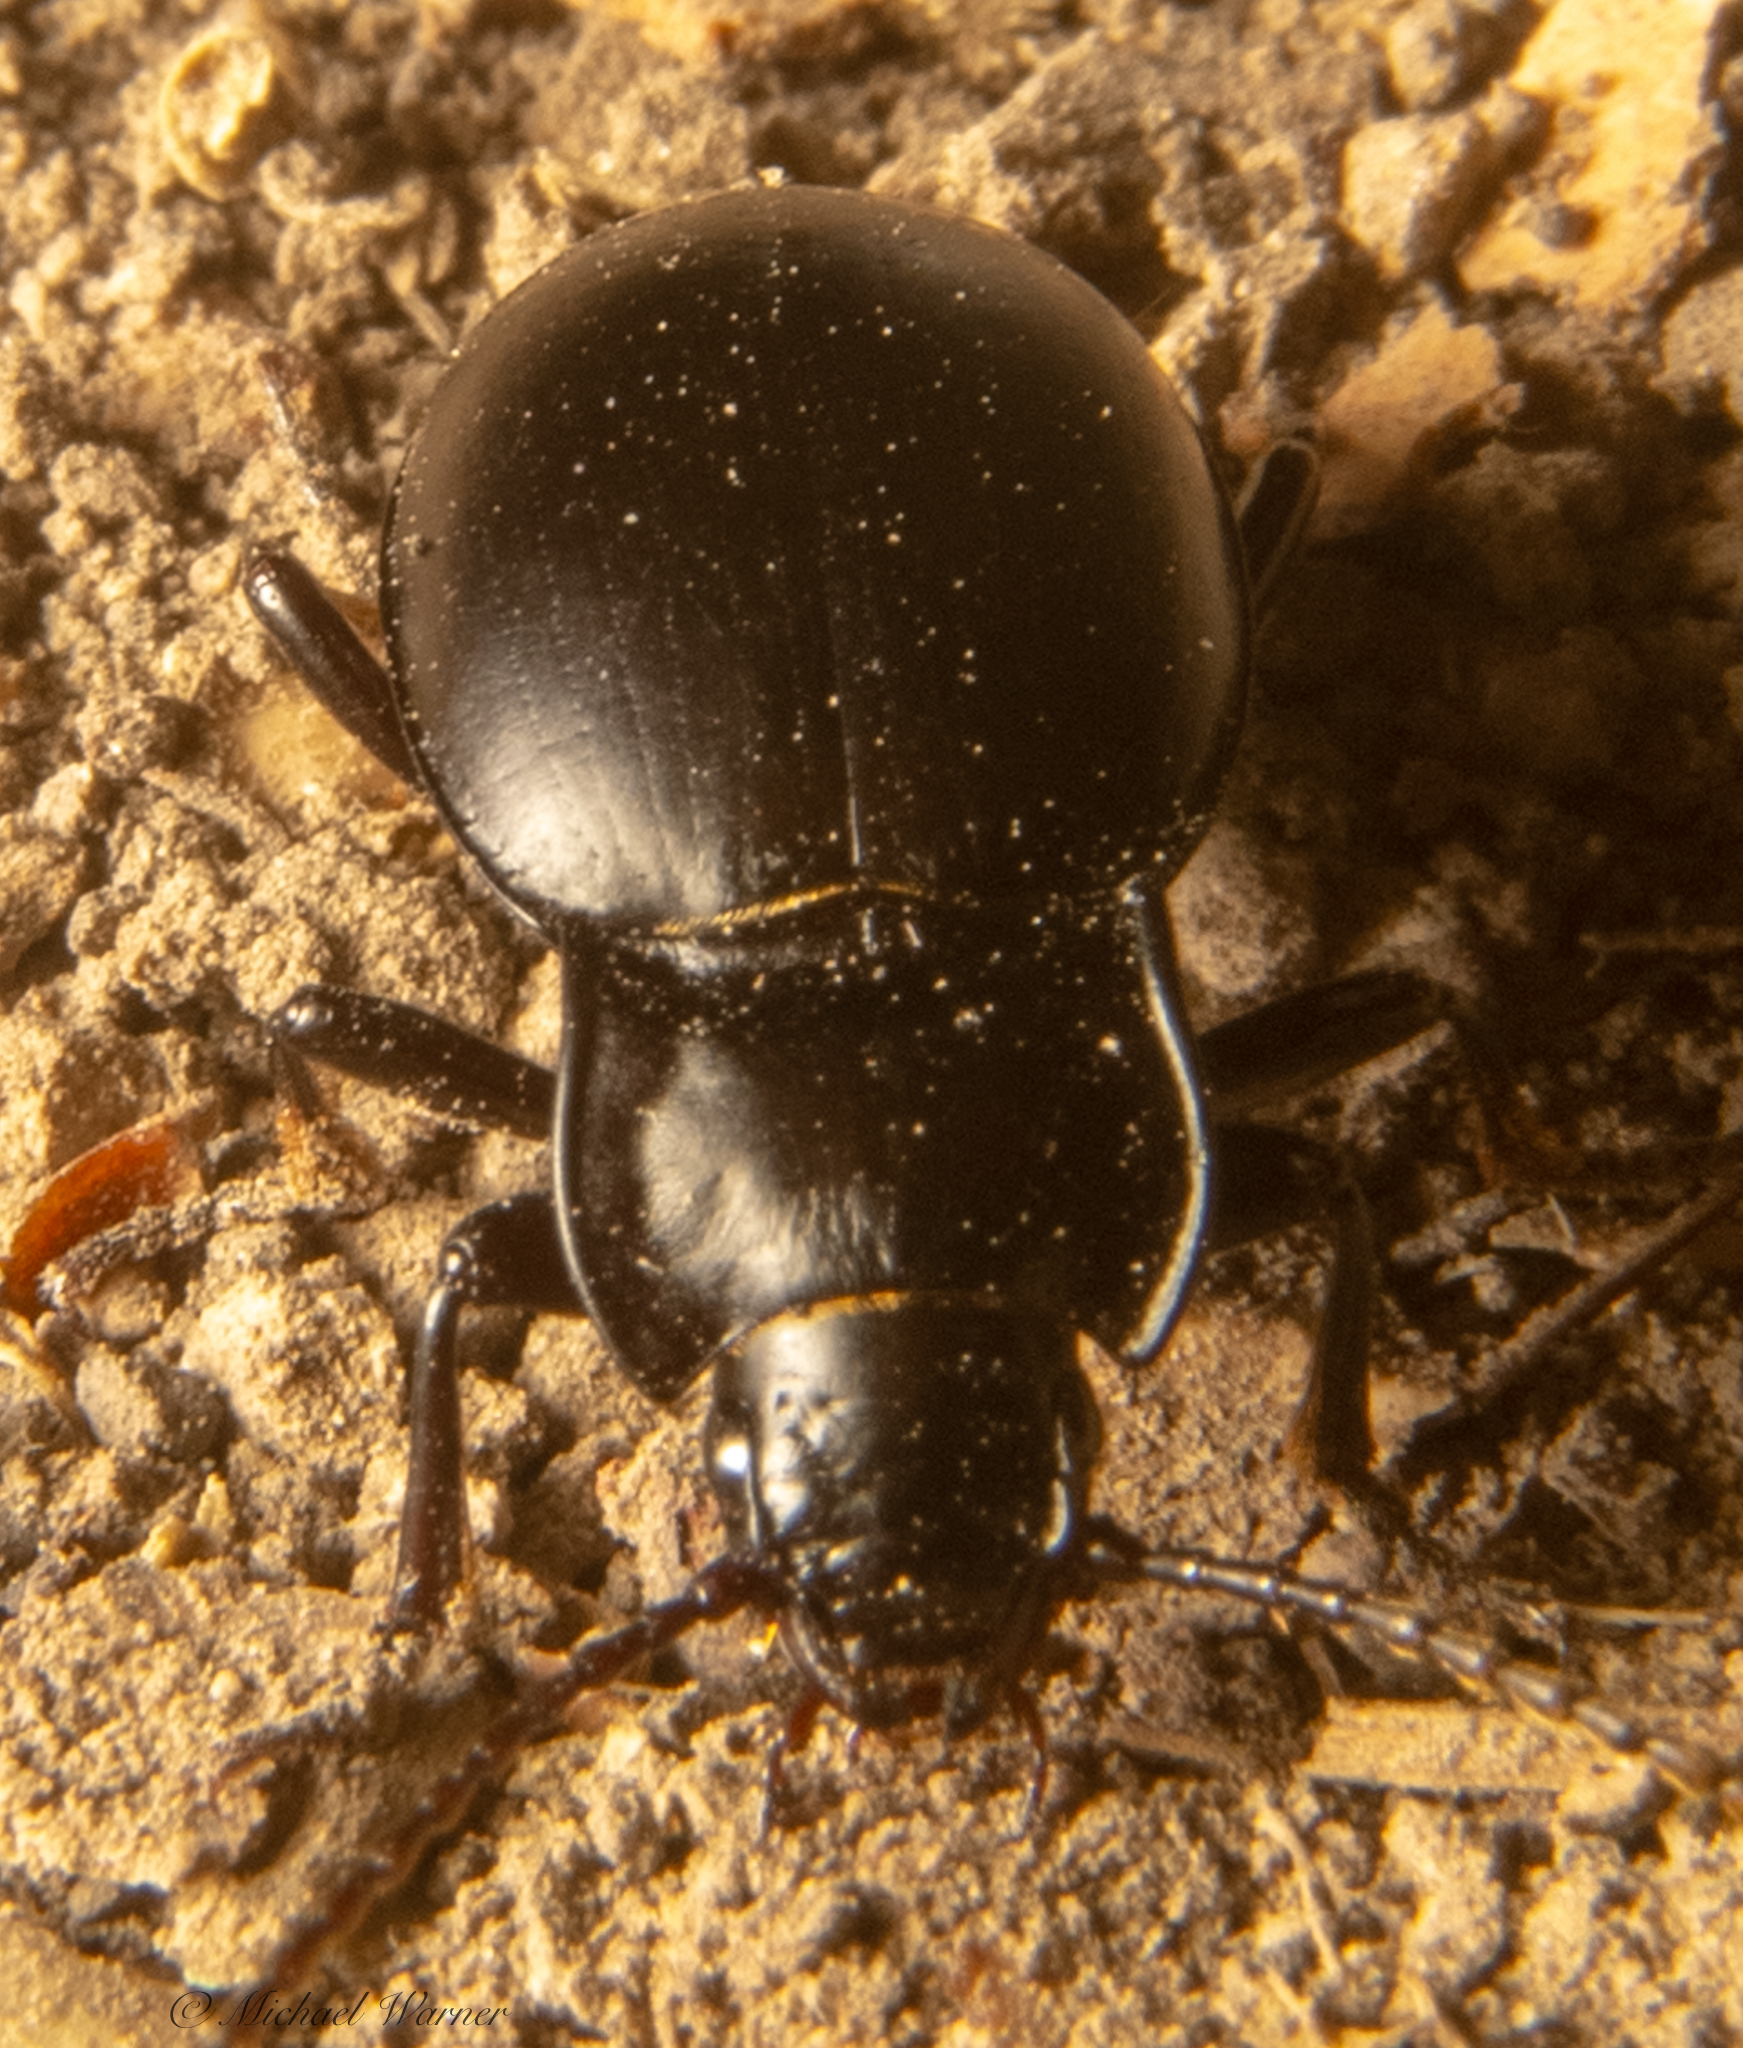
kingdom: Animalia
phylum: Arthropoda
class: Insecta
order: Coleoptera
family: Carabidae
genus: Metrius
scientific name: Metrius contractus
